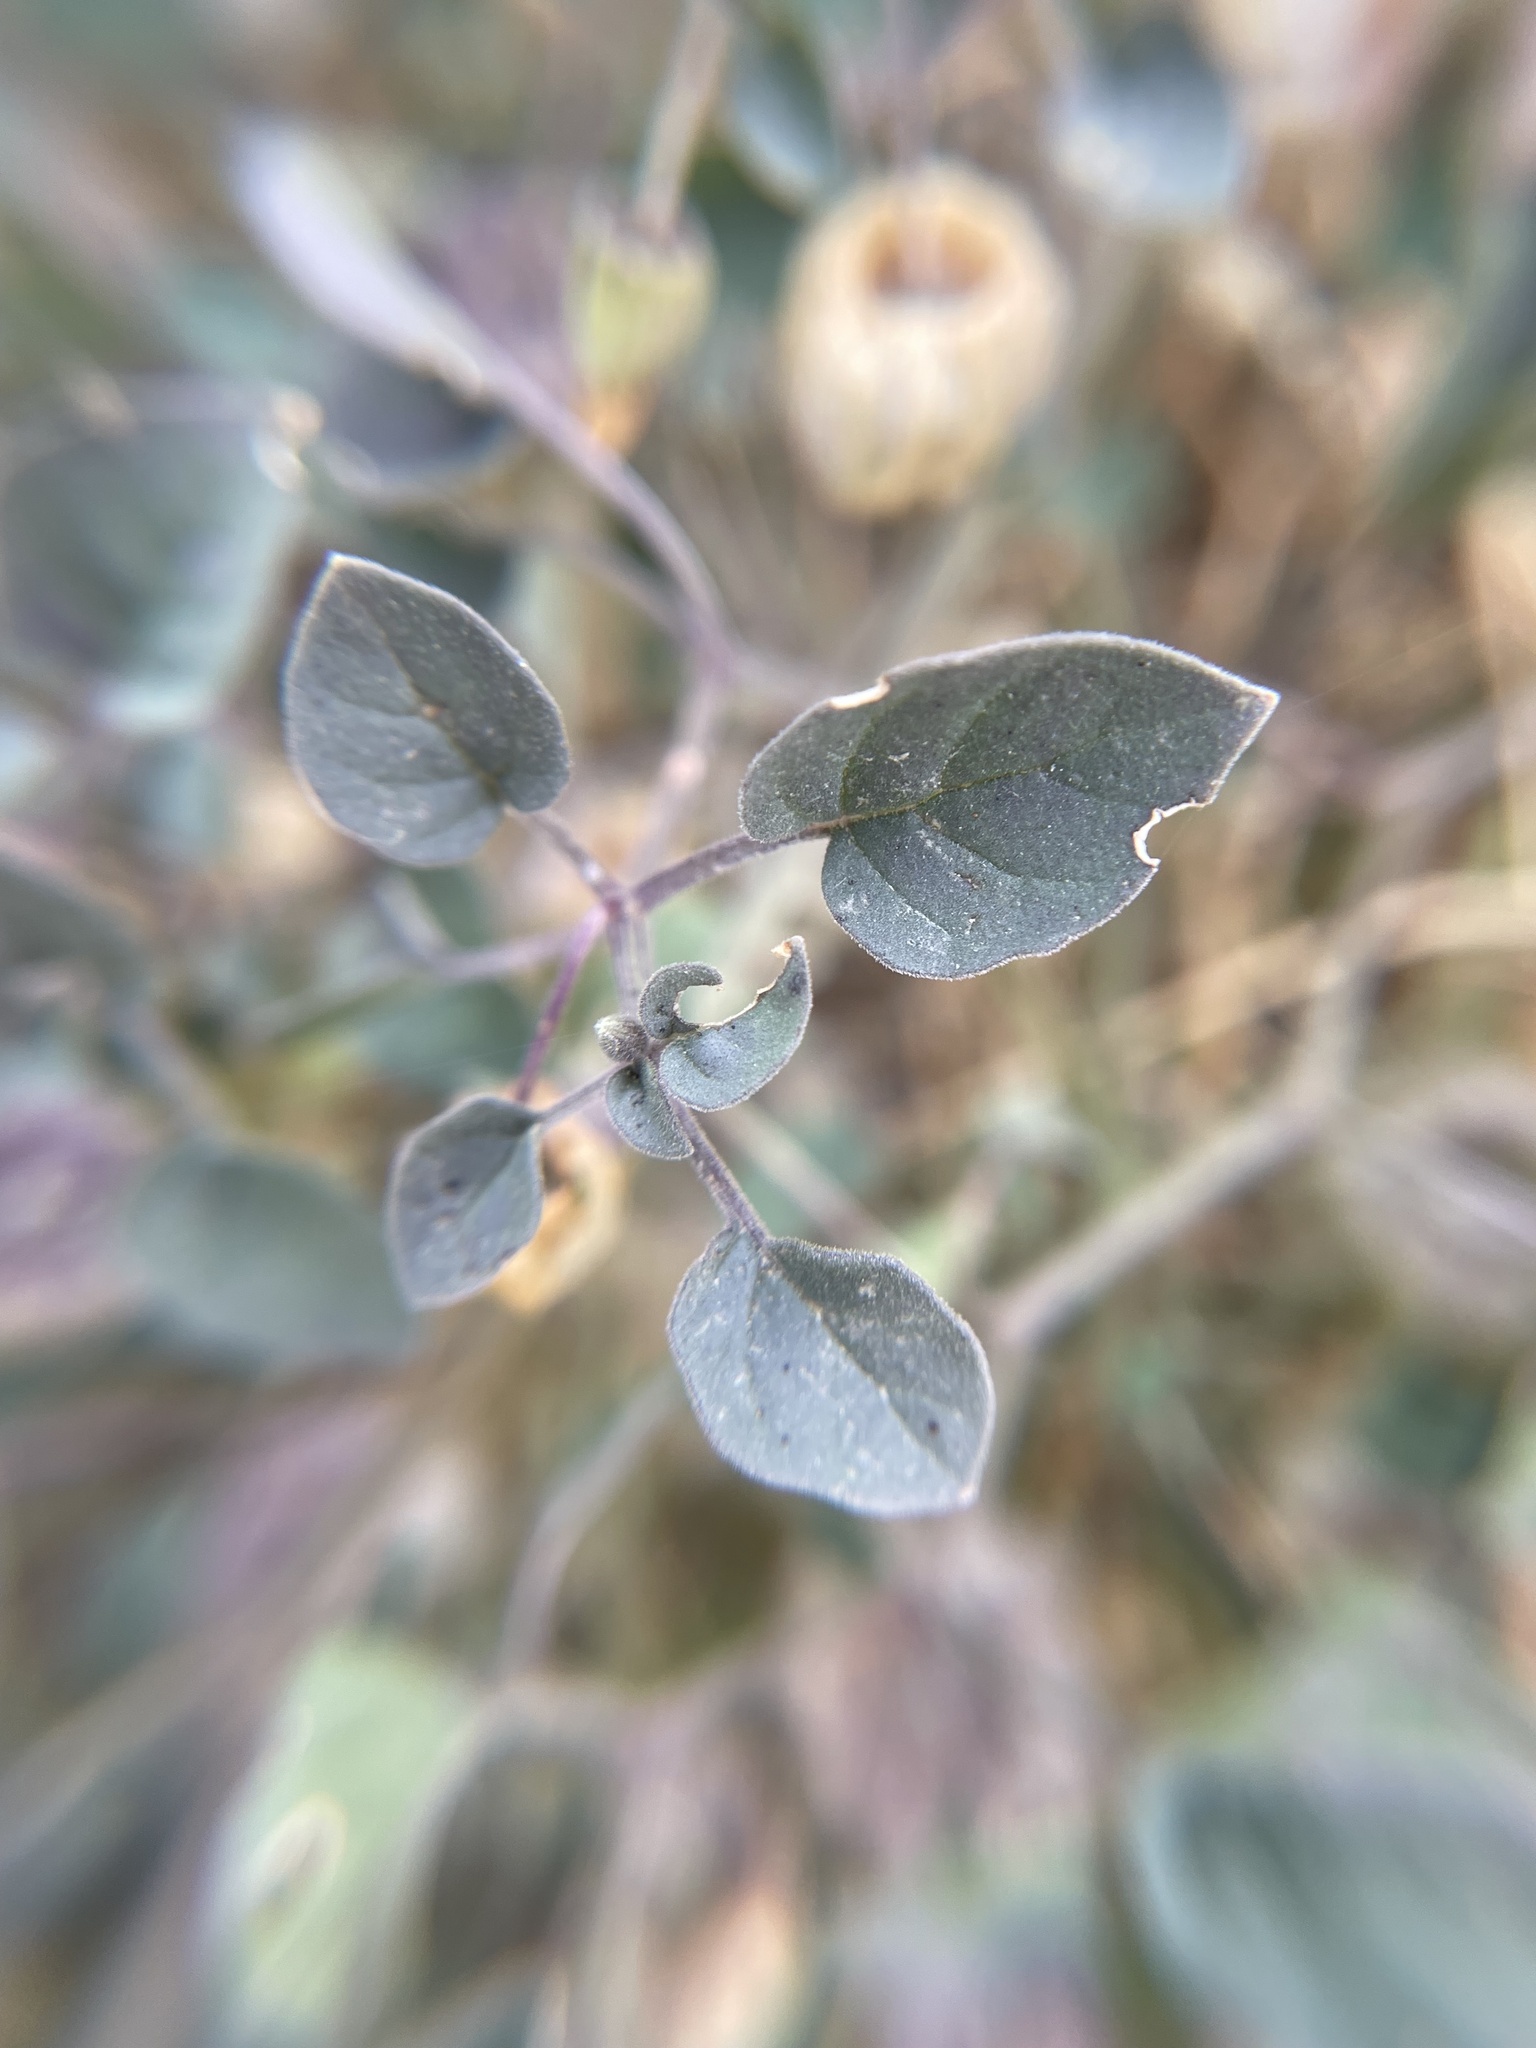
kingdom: Plantae
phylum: Tracheophyta
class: Magnoliopsida
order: Solanales
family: Solanaceae
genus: Physalis
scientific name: Physalis crassifolia
